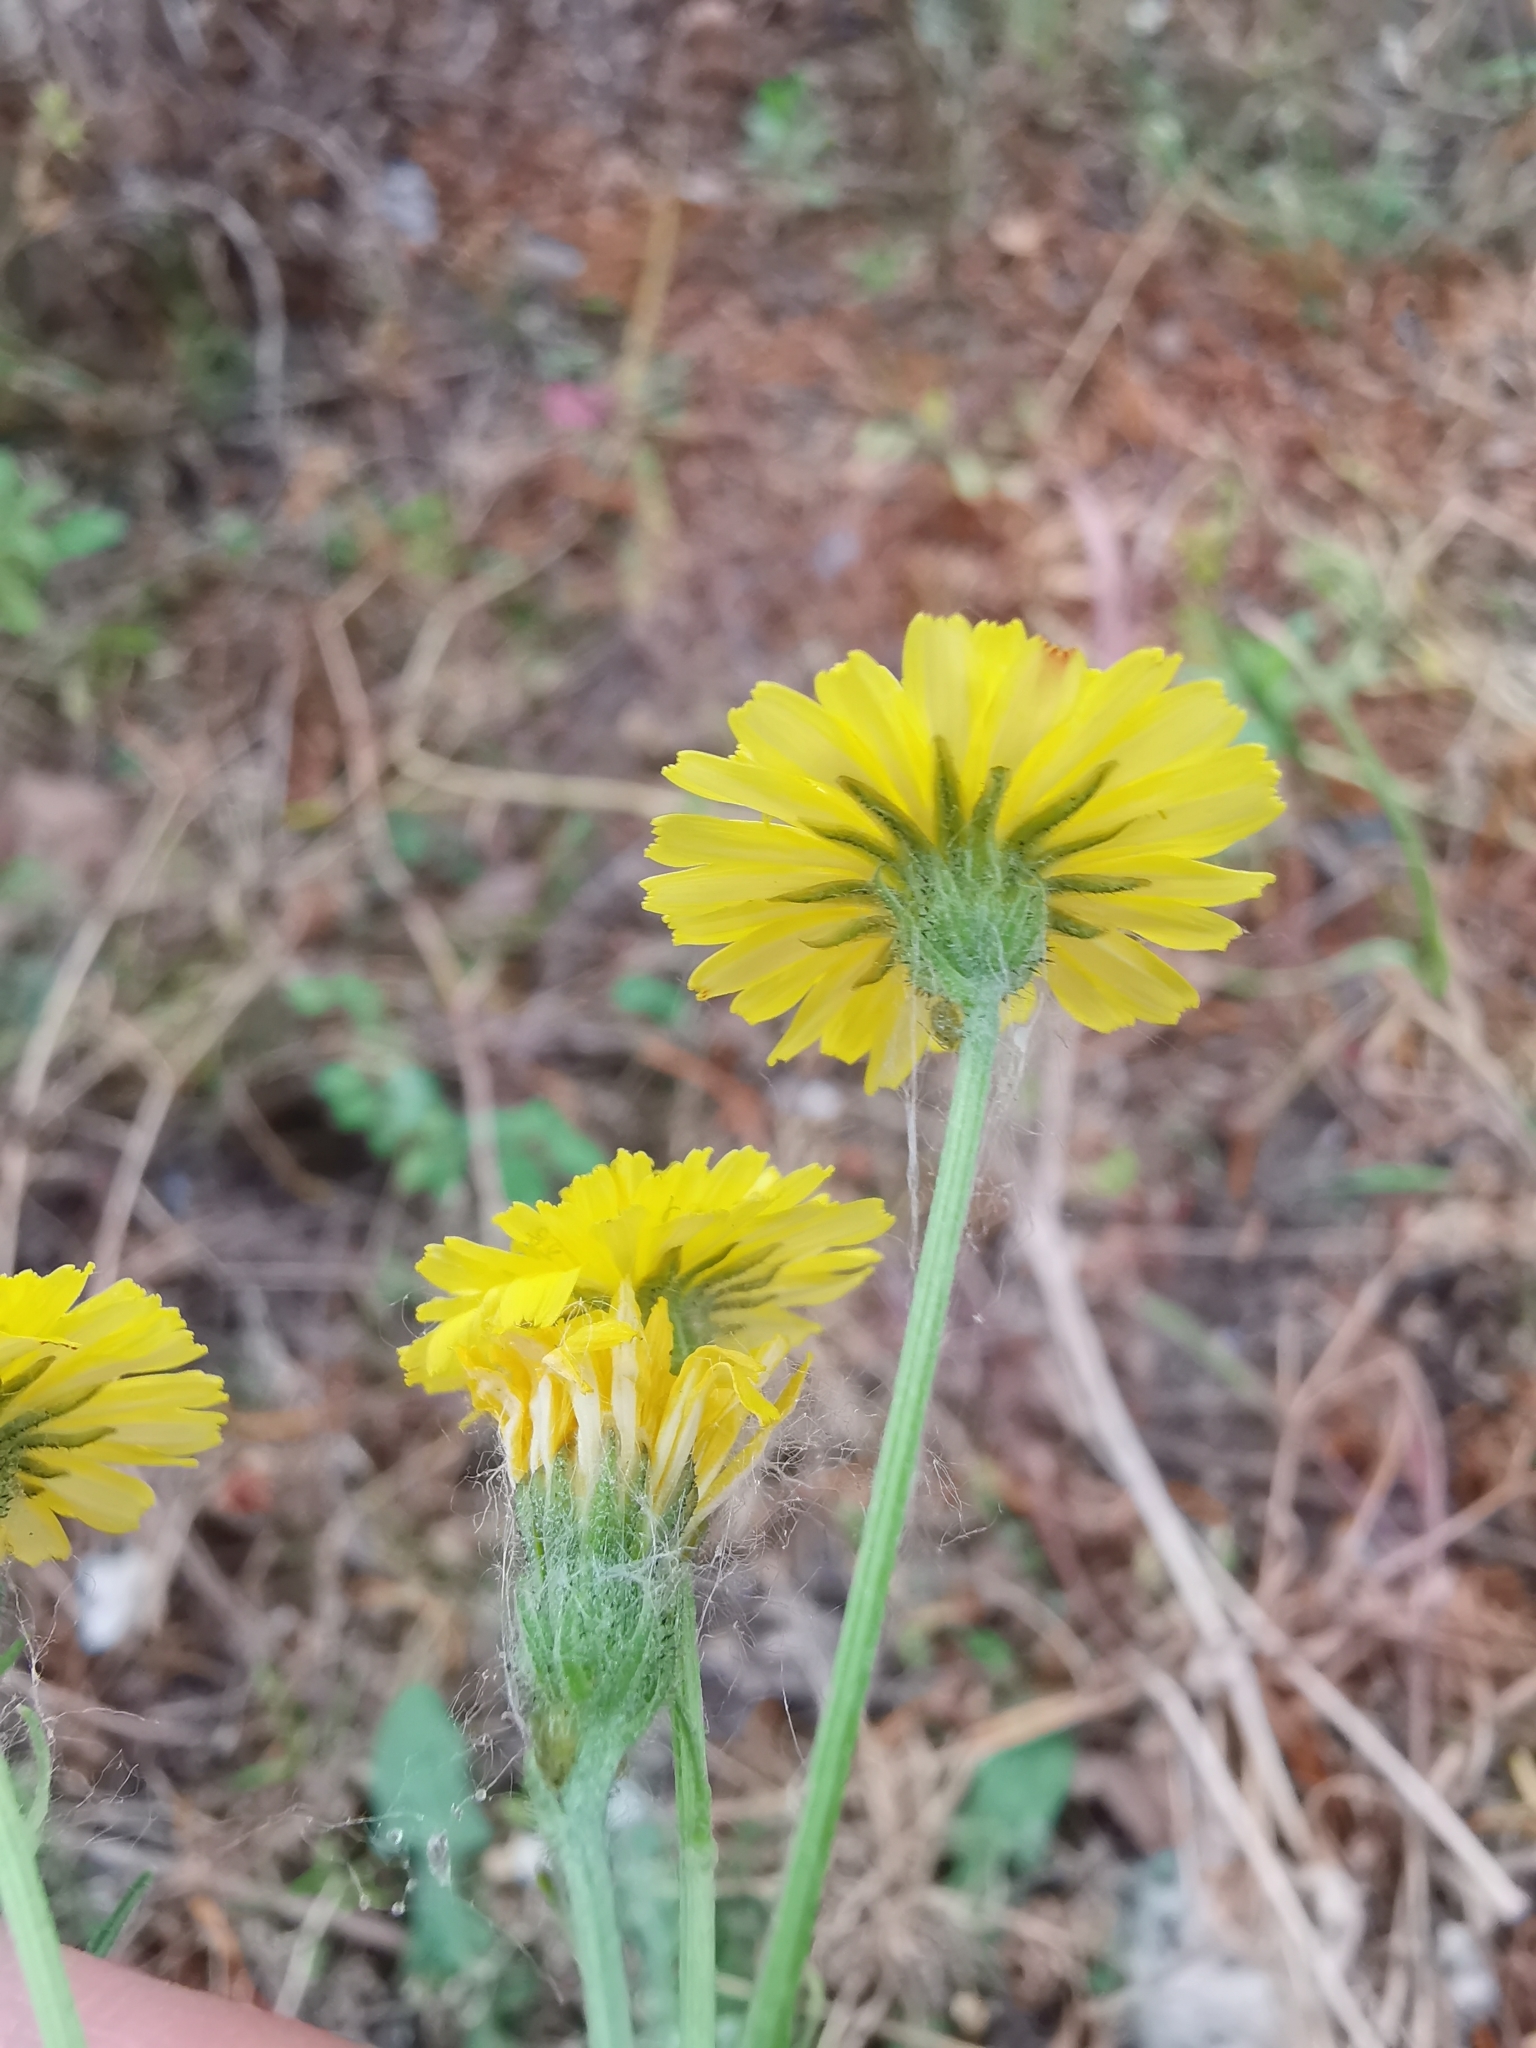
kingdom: Plantae
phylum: Tracheophyta
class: Magnoliopsida
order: Asterales
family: Asteraceae
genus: Crepis
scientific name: Crepis capillaris
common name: Smooth hawksbeard
